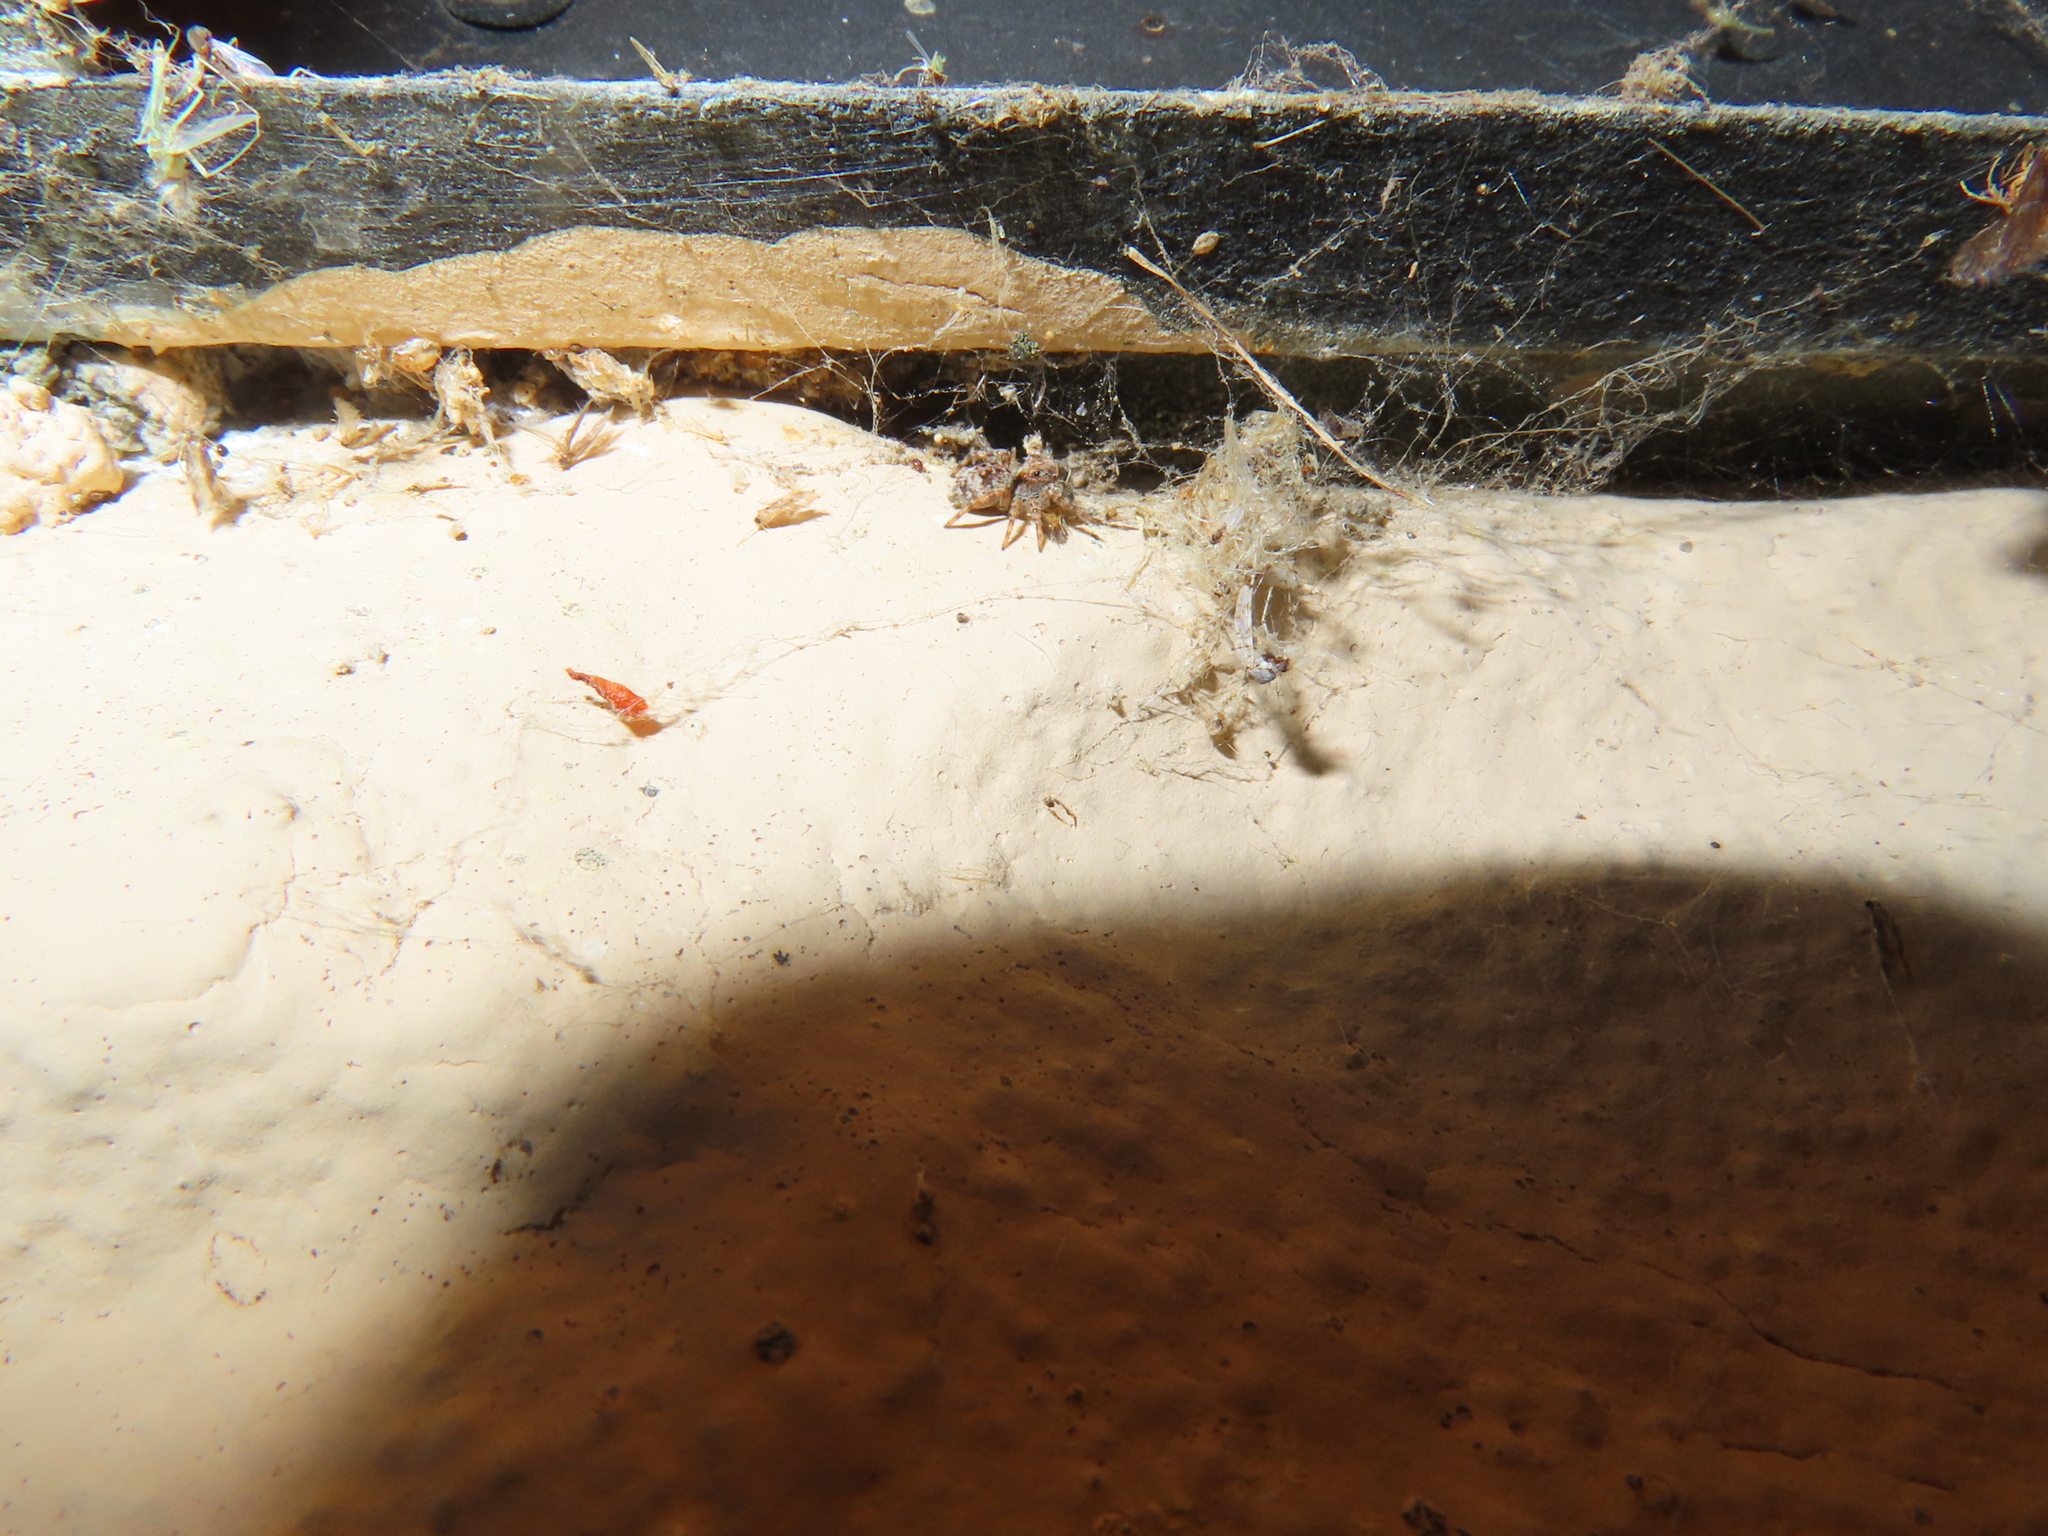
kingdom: Animalia
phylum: Arthropoda
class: Arachnida
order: Araneae
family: Salticidae
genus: Attulus
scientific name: Attulus fasciger
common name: Asiatic wall jumping spider
